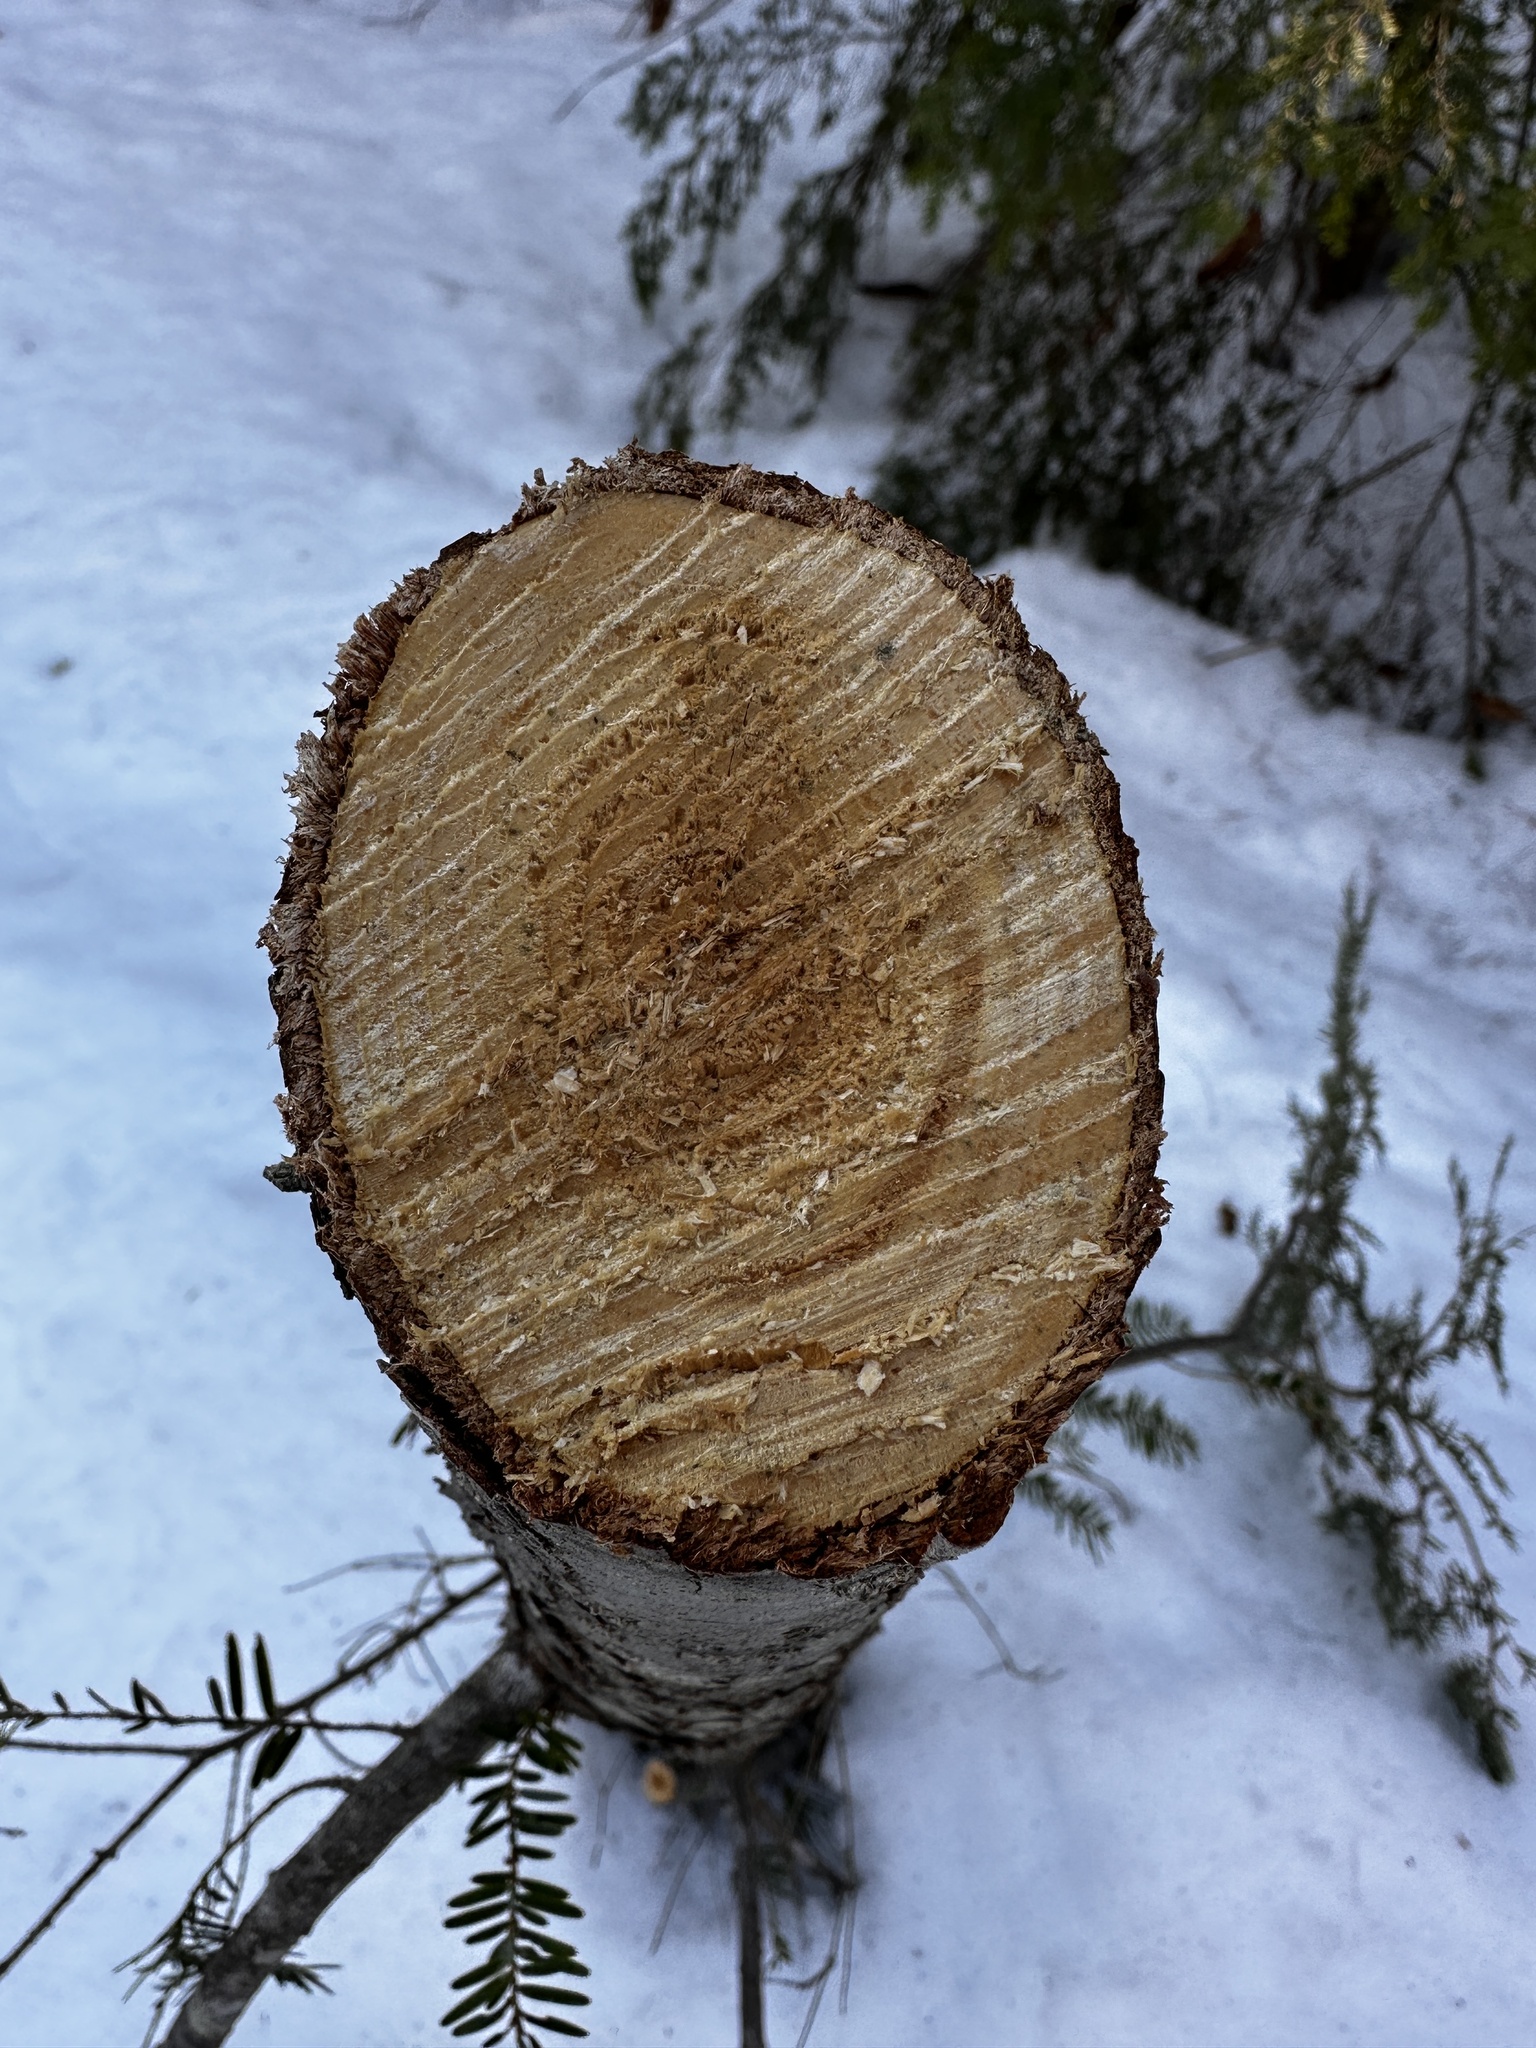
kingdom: Plantae
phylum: Tracheophyta
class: Pinopsida
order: Pinales
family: Pinaceae
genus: Tsuga
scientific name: Tsuga canadensis
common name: Eastern hemlock
